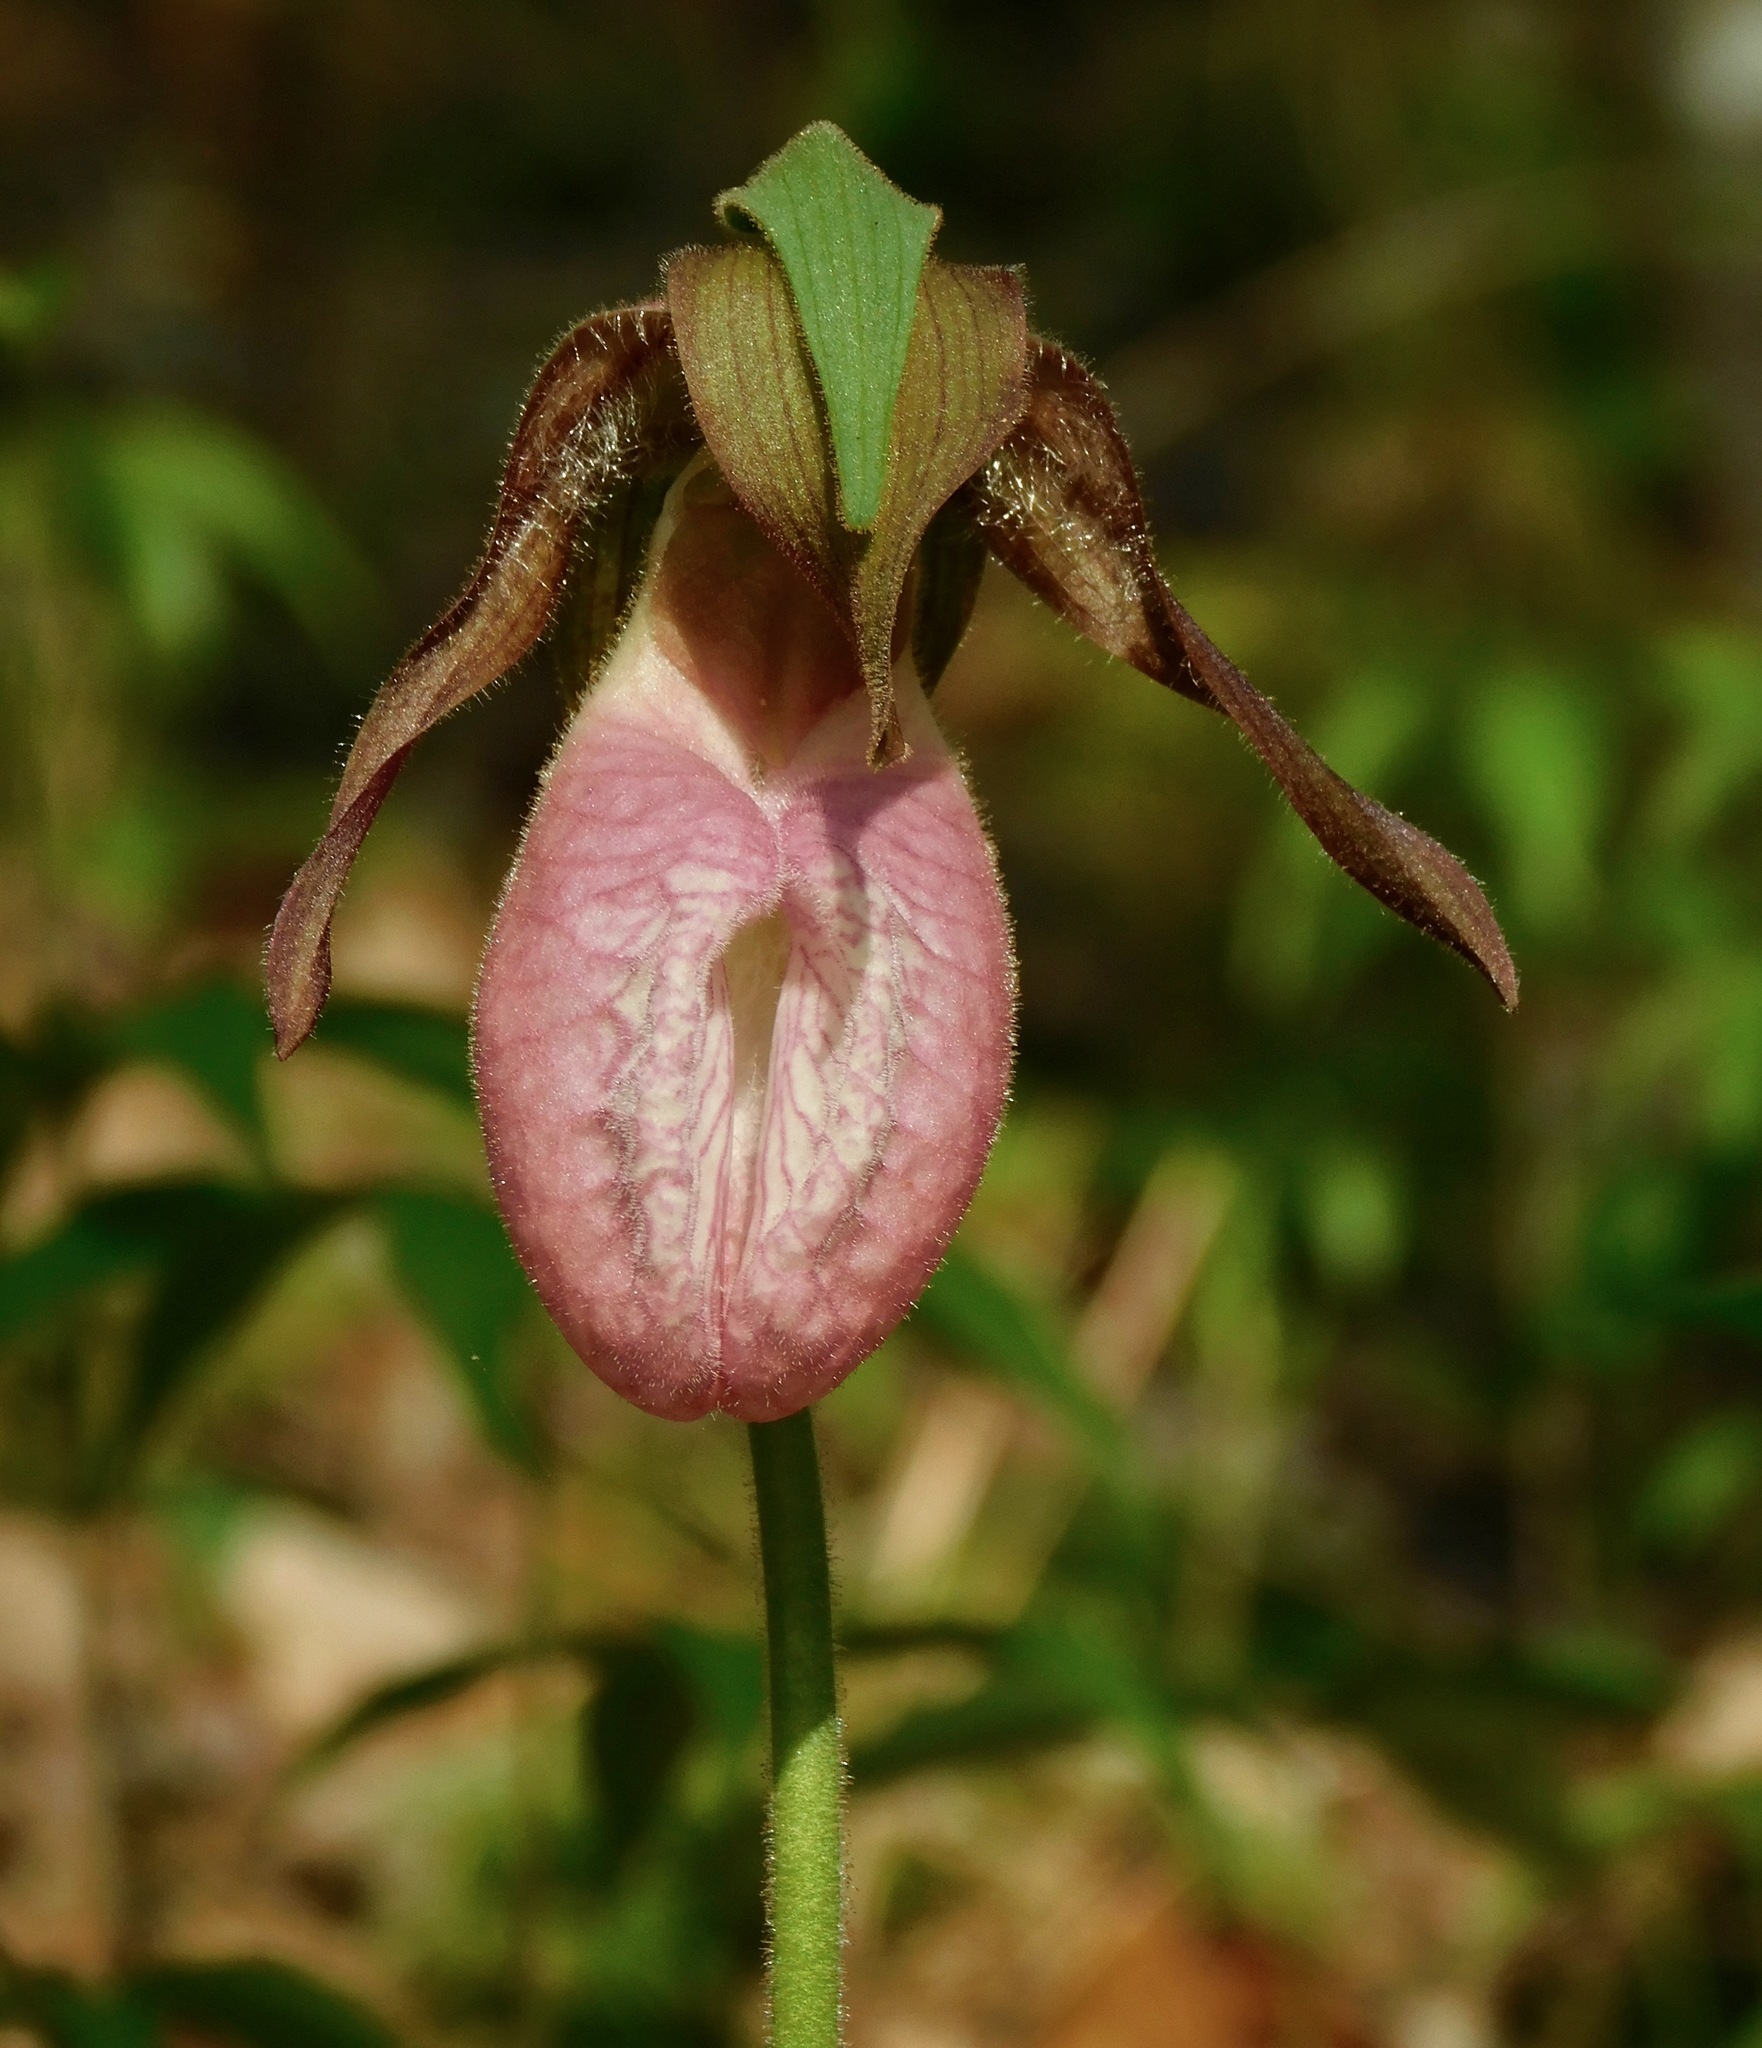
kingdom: Plantae
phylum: Tracheophyta
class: Liliopsida
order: Asparagales
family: Orchidaceae
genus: Cypripedium
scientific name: Cypripedium acaule
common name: Pink lady's-slipper
